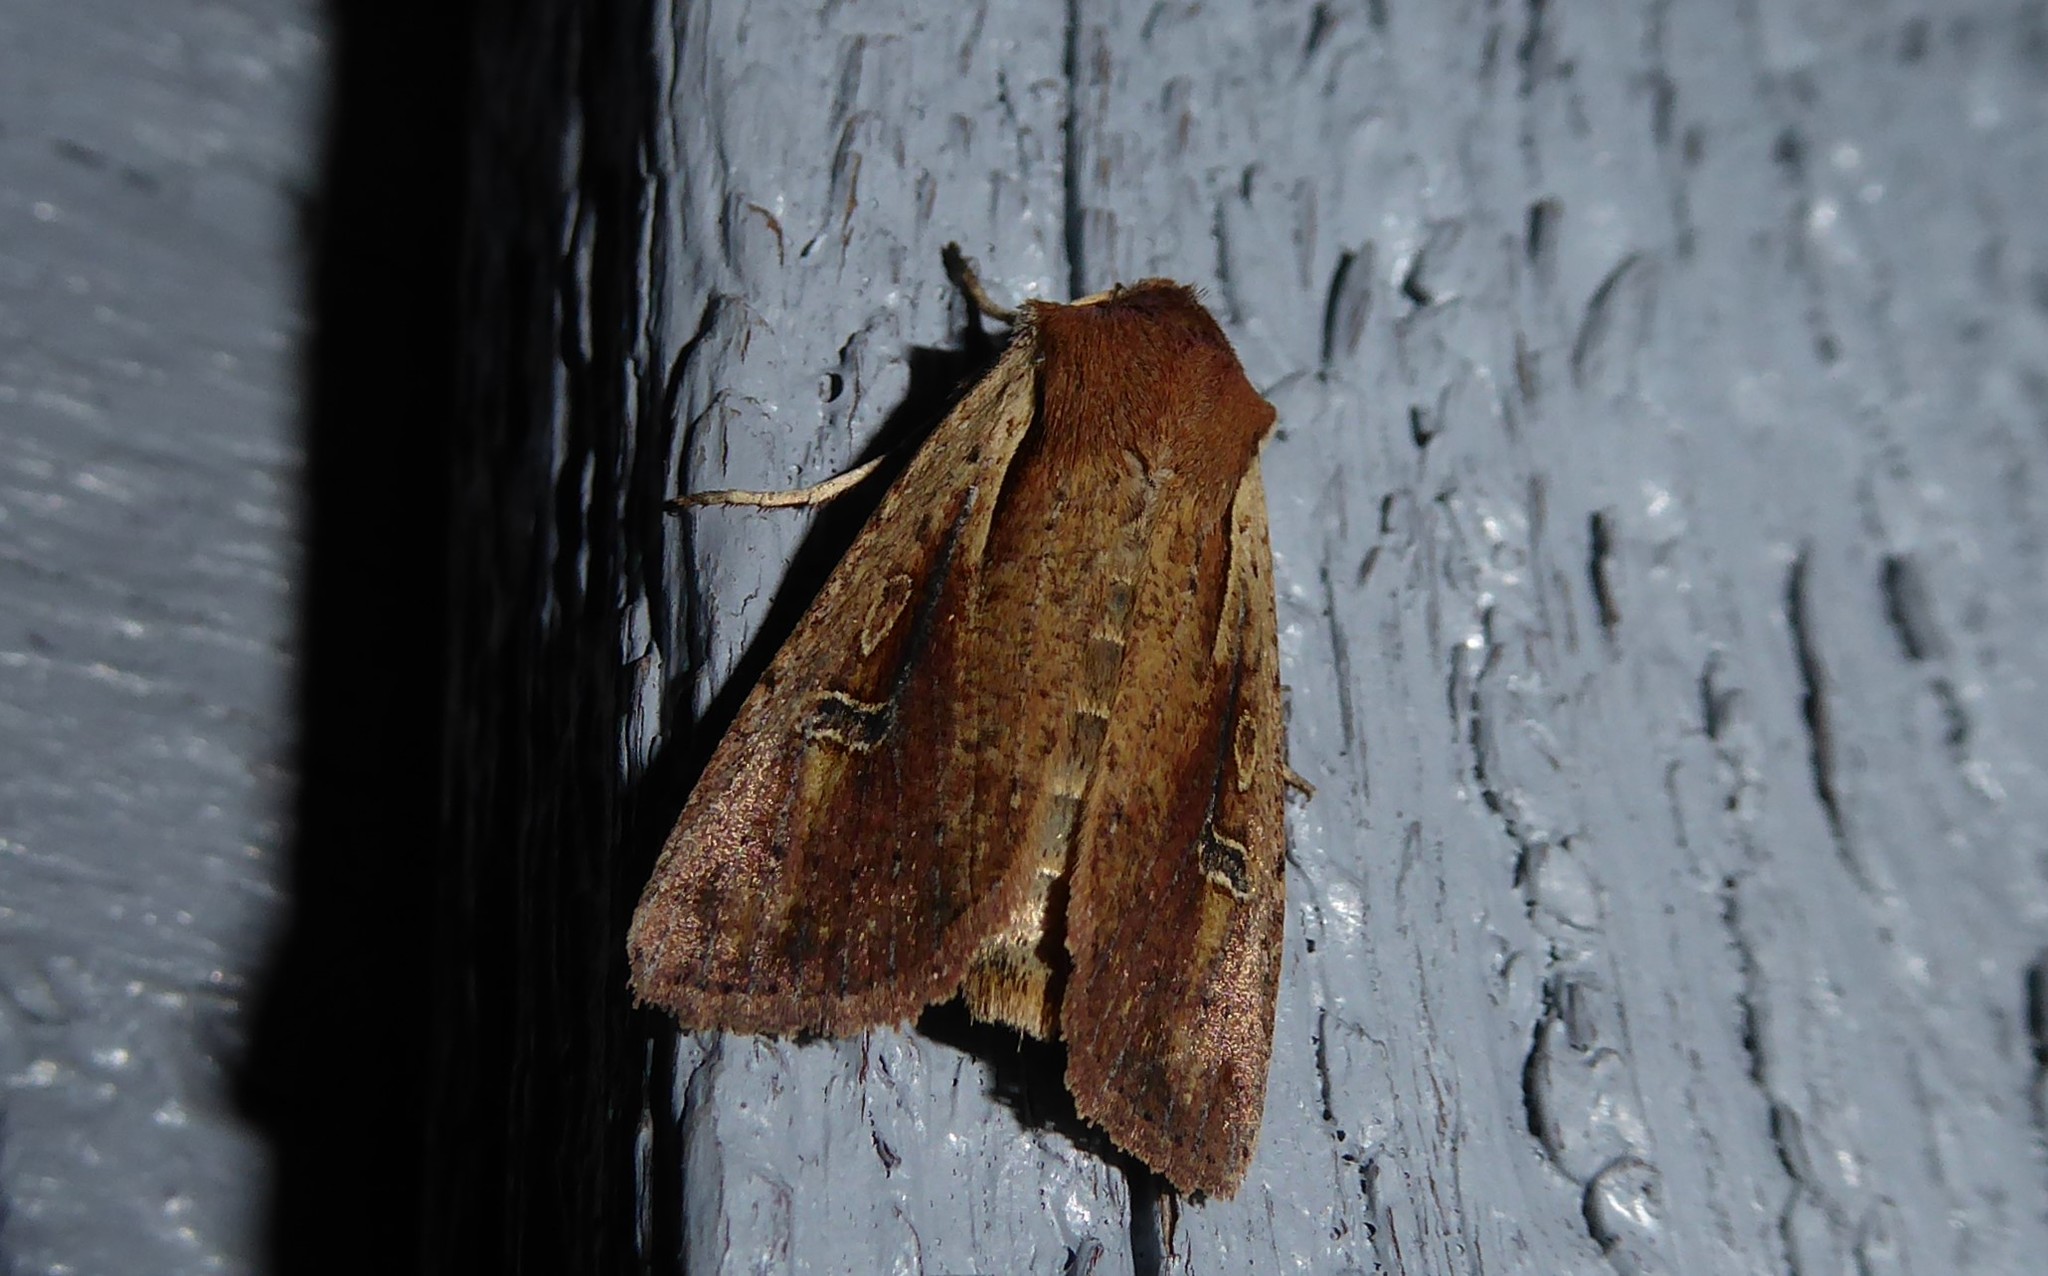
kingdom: Animalia
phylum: Arthropoda
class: Insecta
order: Lepidoptera
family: Noctuidae
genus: Ichneutica
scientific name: Ichneutica atristriga
